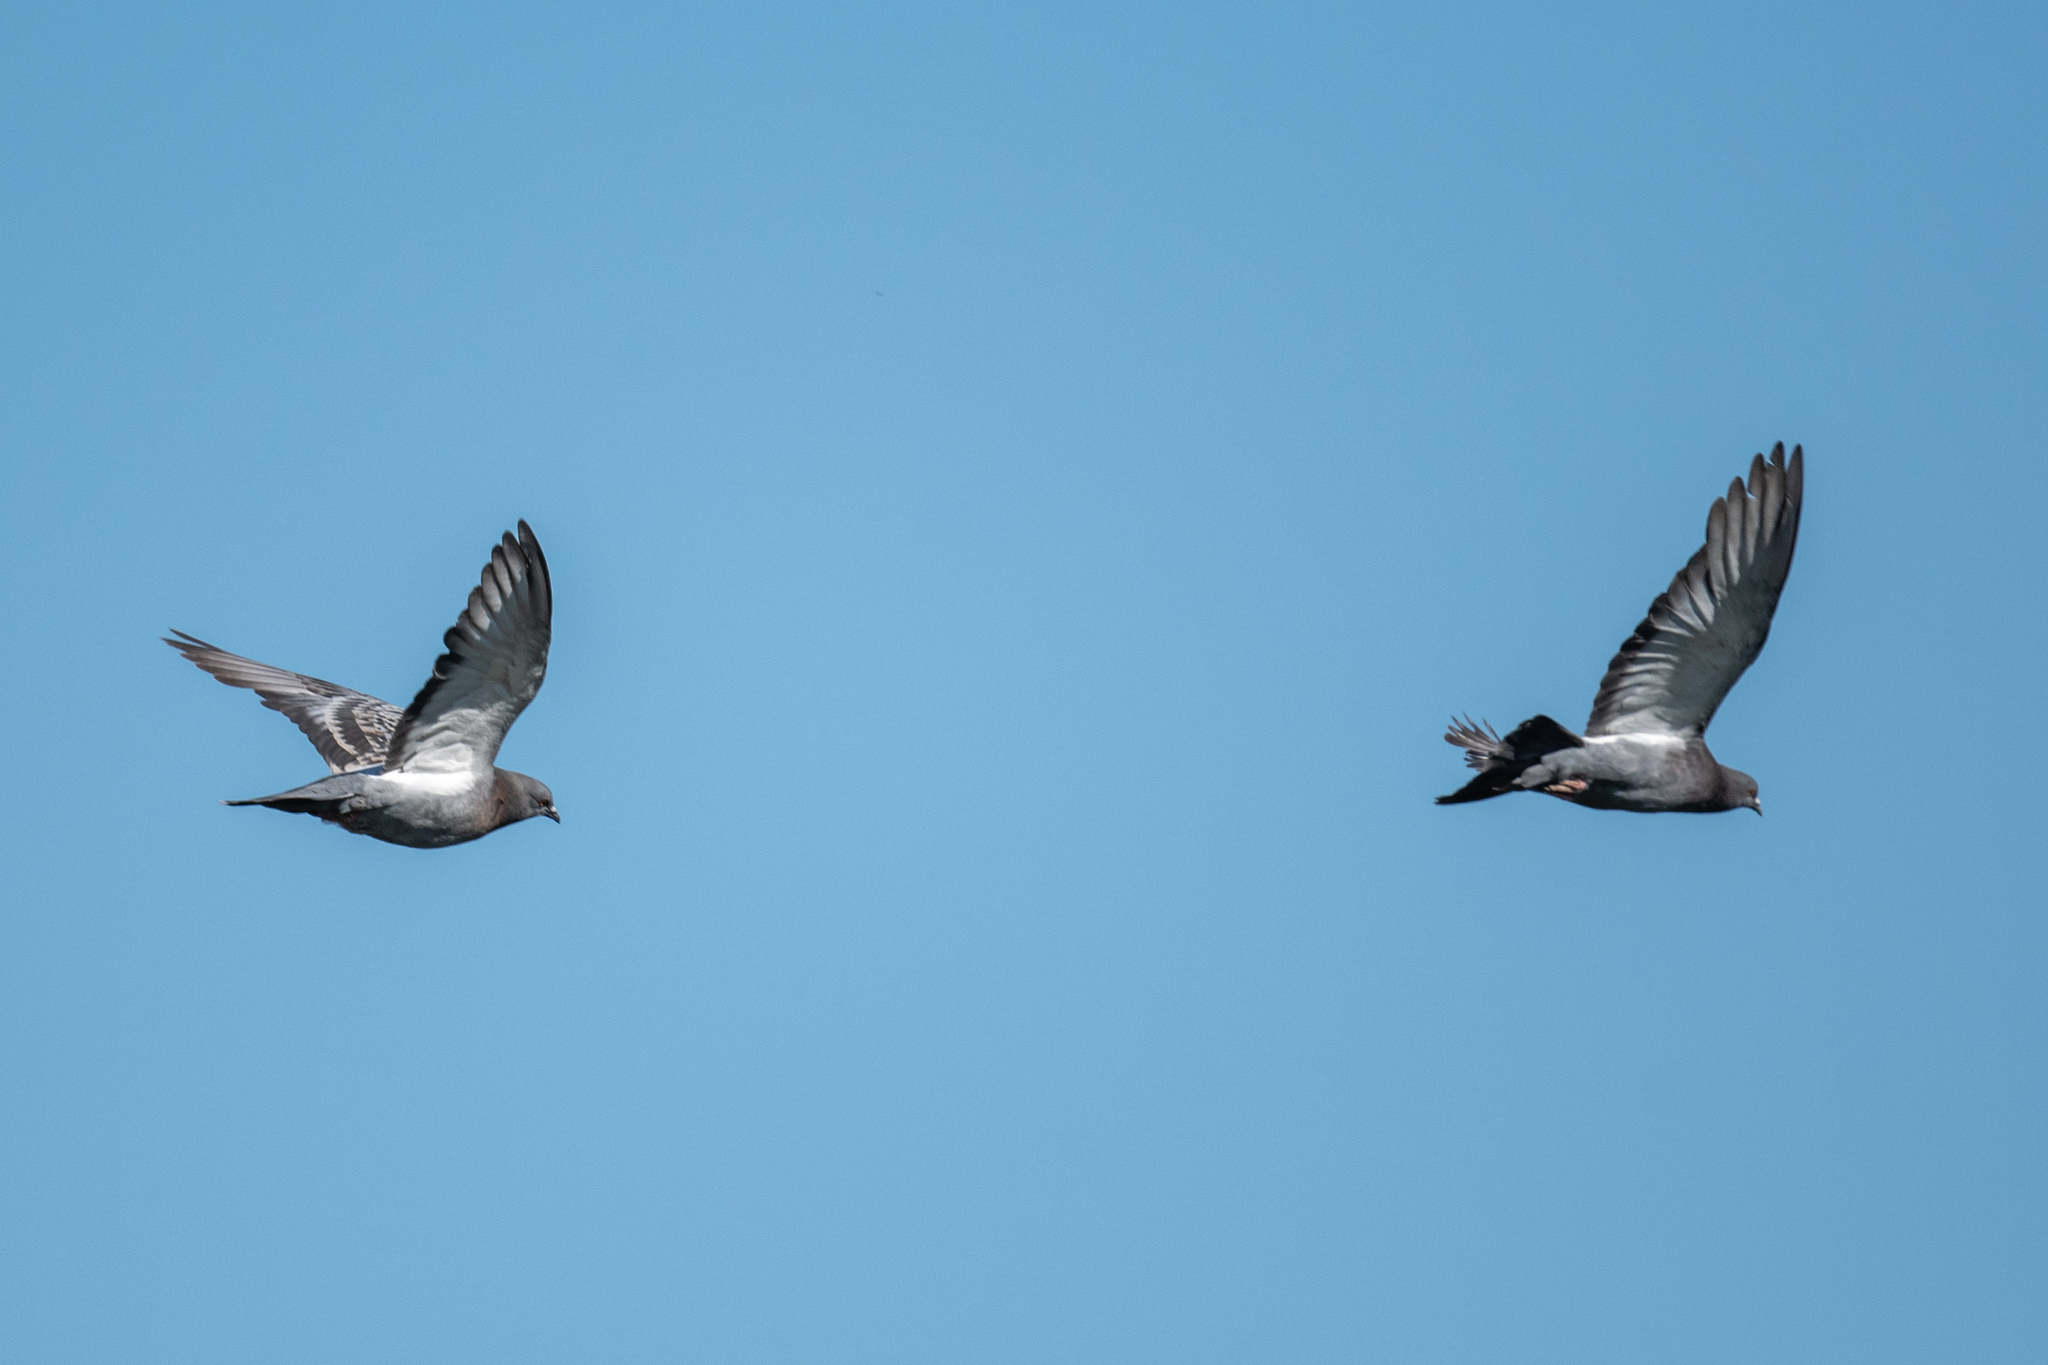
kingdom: Animalia
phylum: Chordata
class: Aves
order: Columbiformes
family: Columbidae
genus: Columba
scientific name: Columba livia
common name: Rock pigeon
